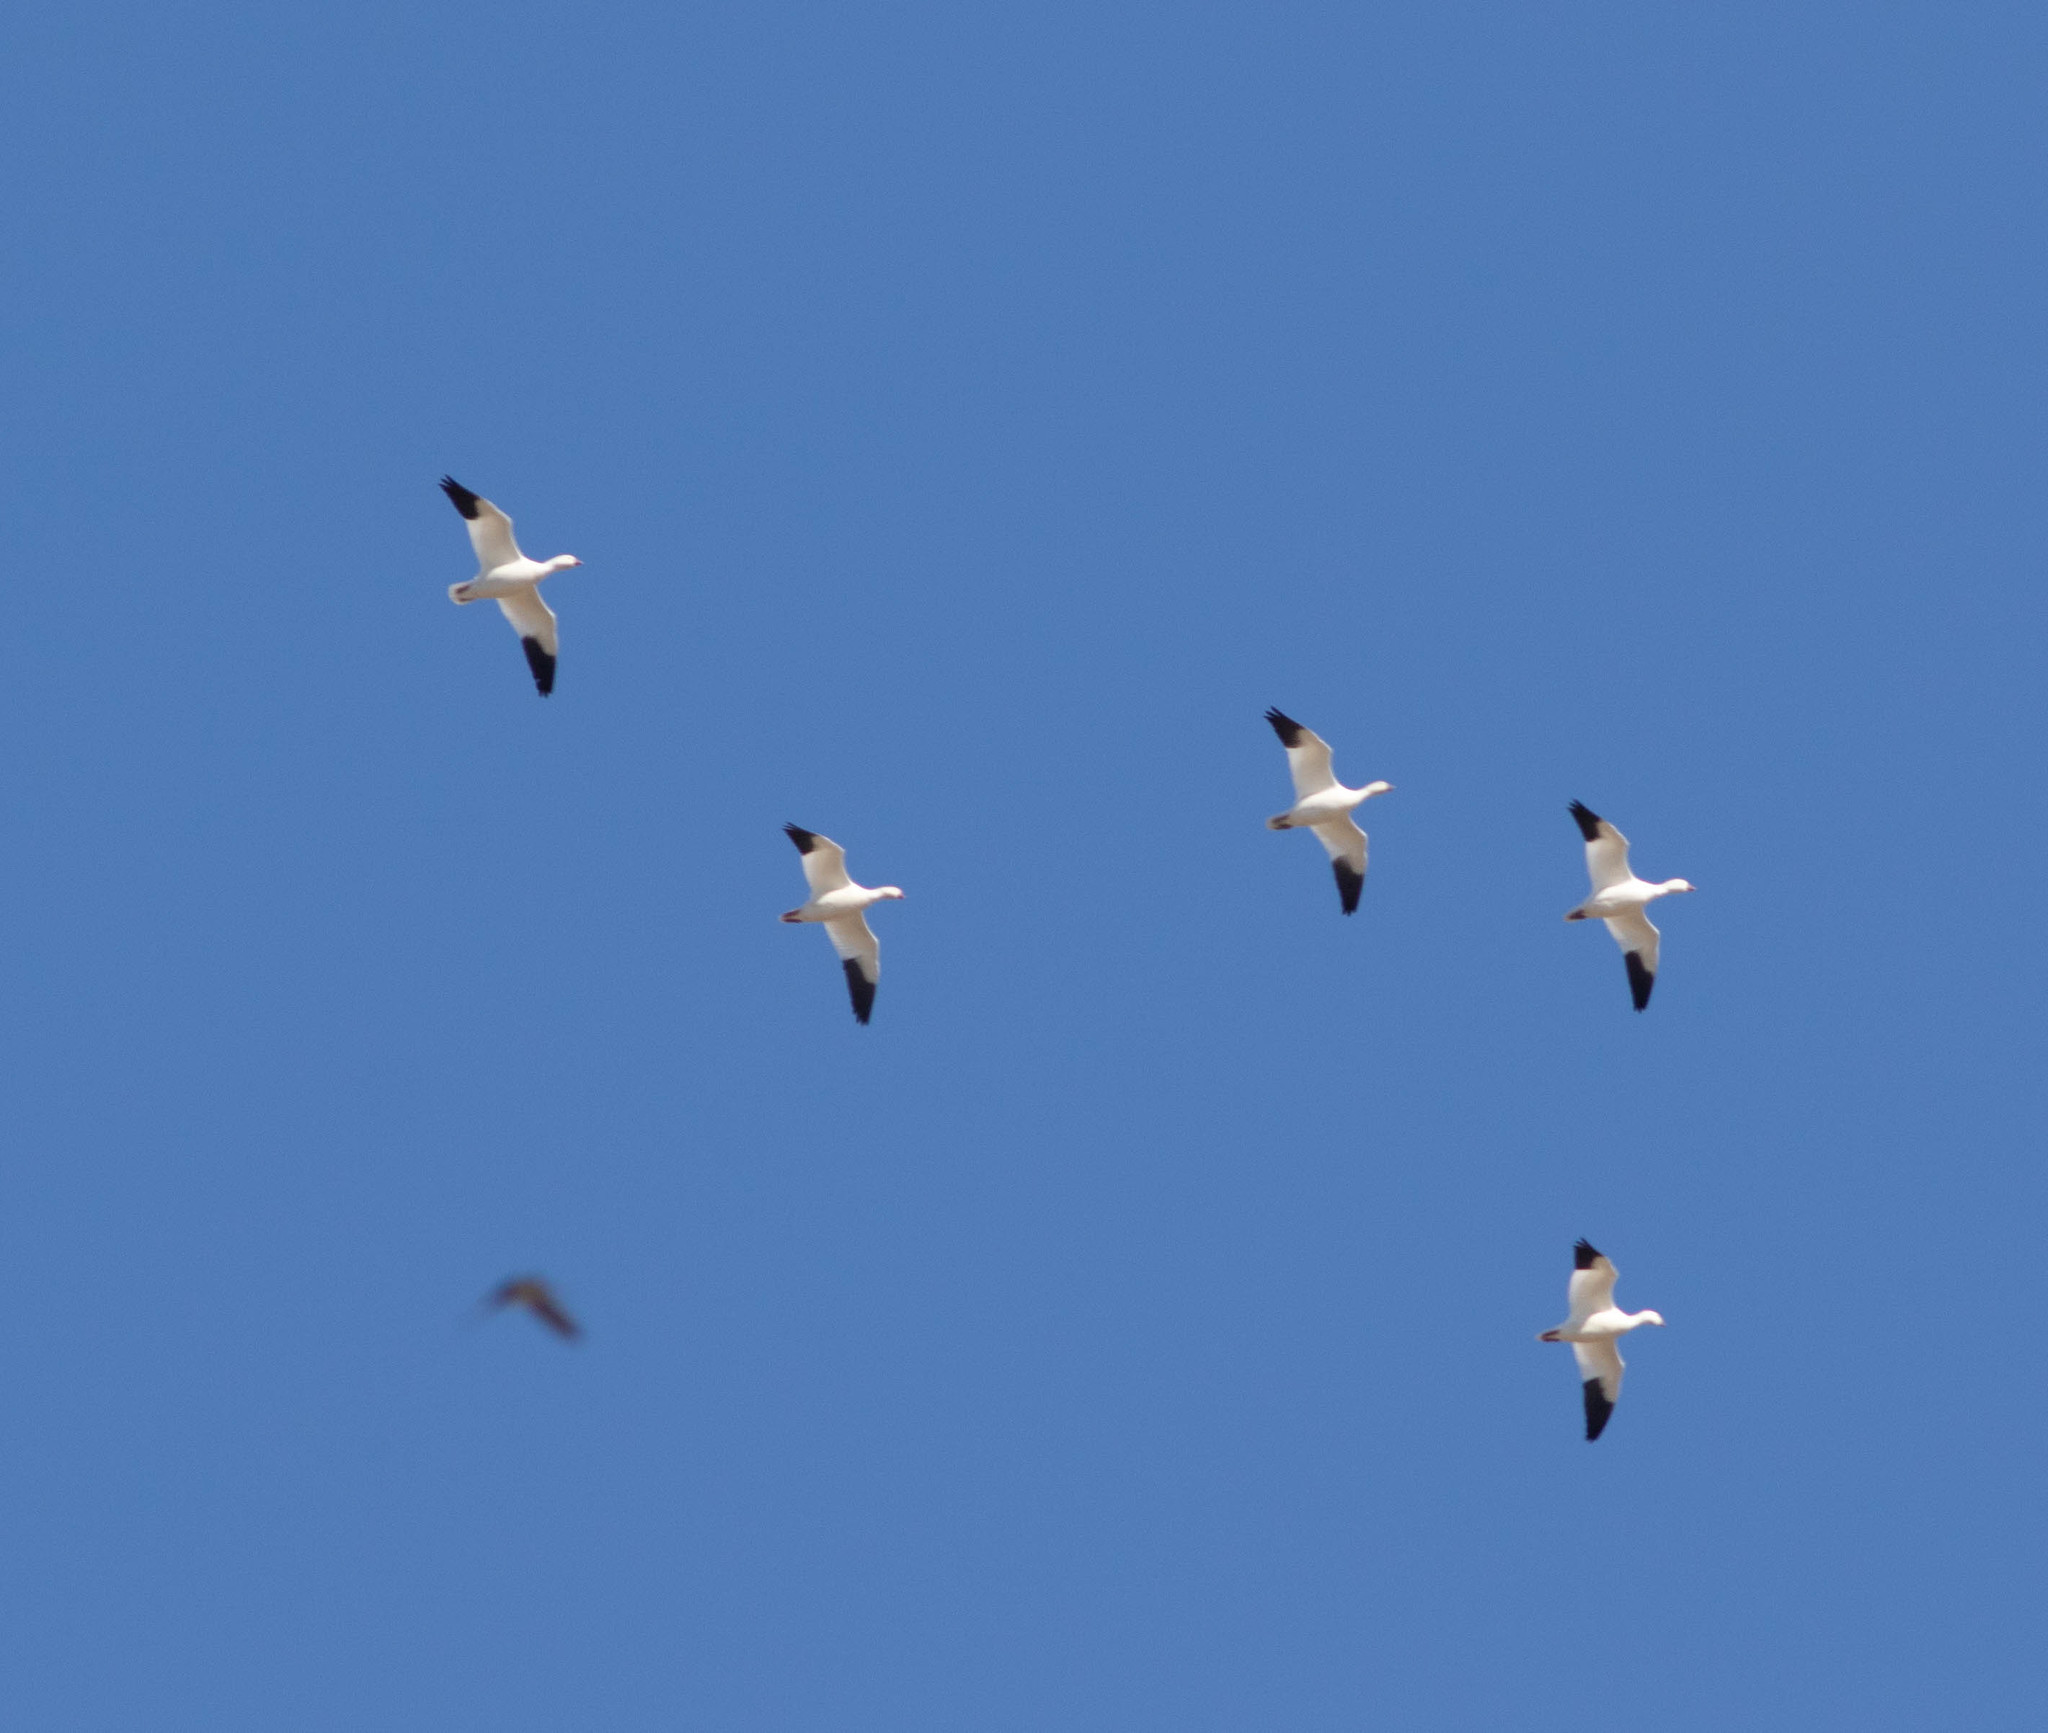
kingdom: Animalia
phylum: Chordata
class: Aves
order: Anseriformes
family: Anatidae
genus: Anser
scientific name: Anser caerulescens
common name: Snow goose
